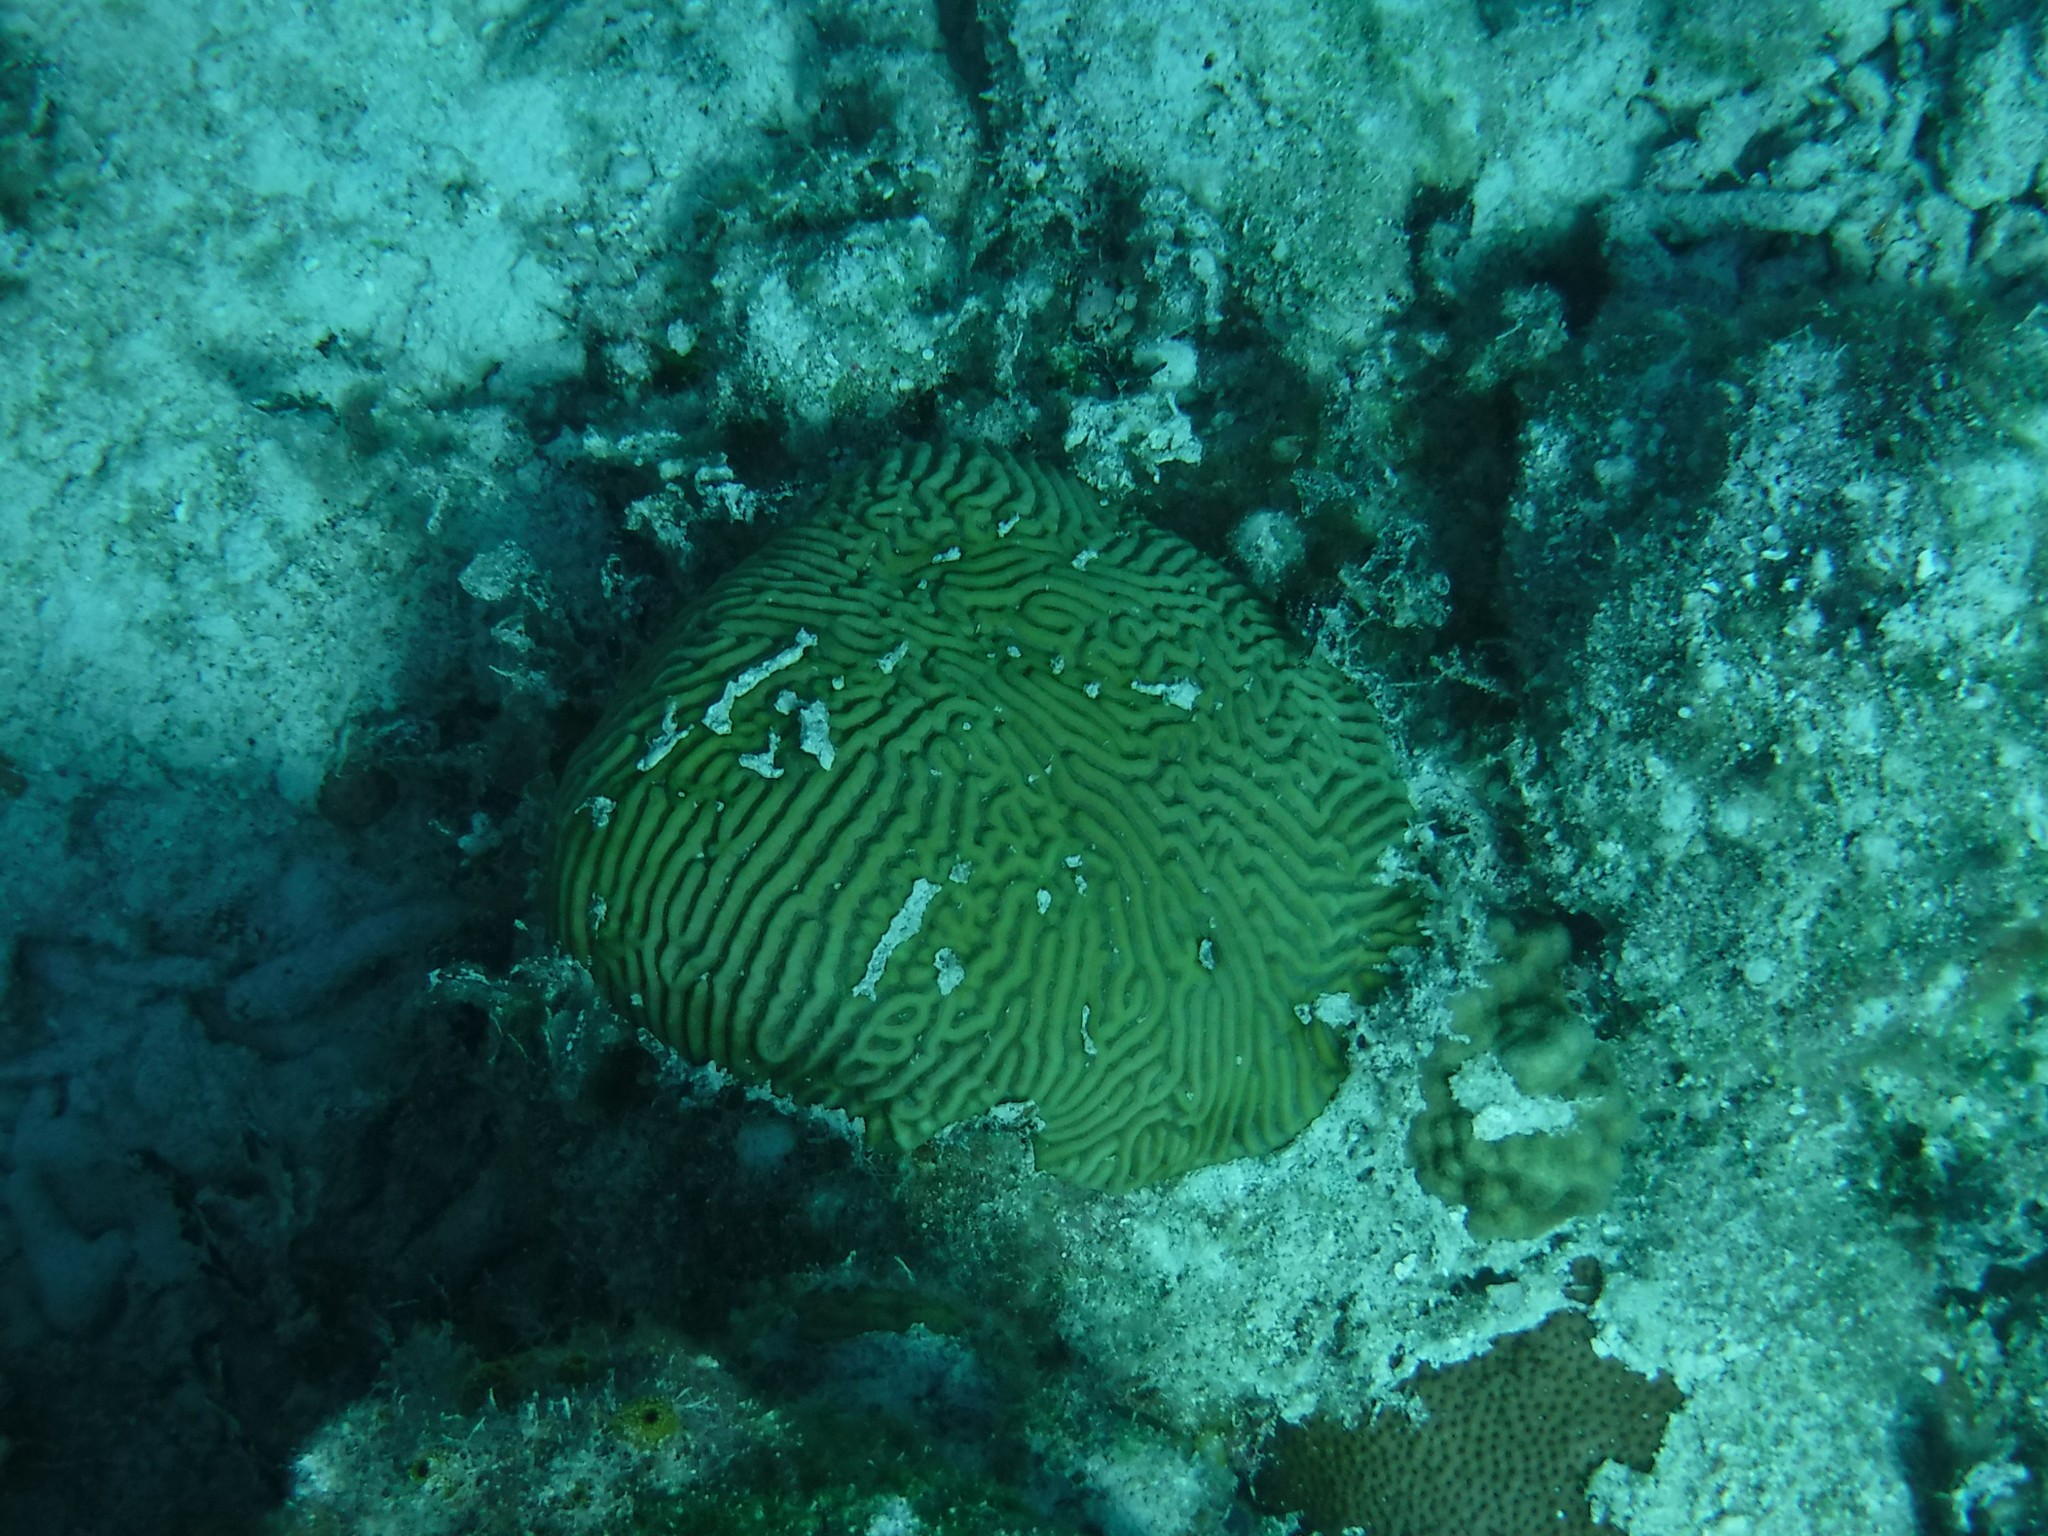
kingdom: Animalia
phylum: Cnidaria
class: Anthozoa
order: Scleractinia
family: Faviidae
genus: Pseudodiploria
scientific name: Pseudodiploria strigosa
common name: Symmetrical brain coral
